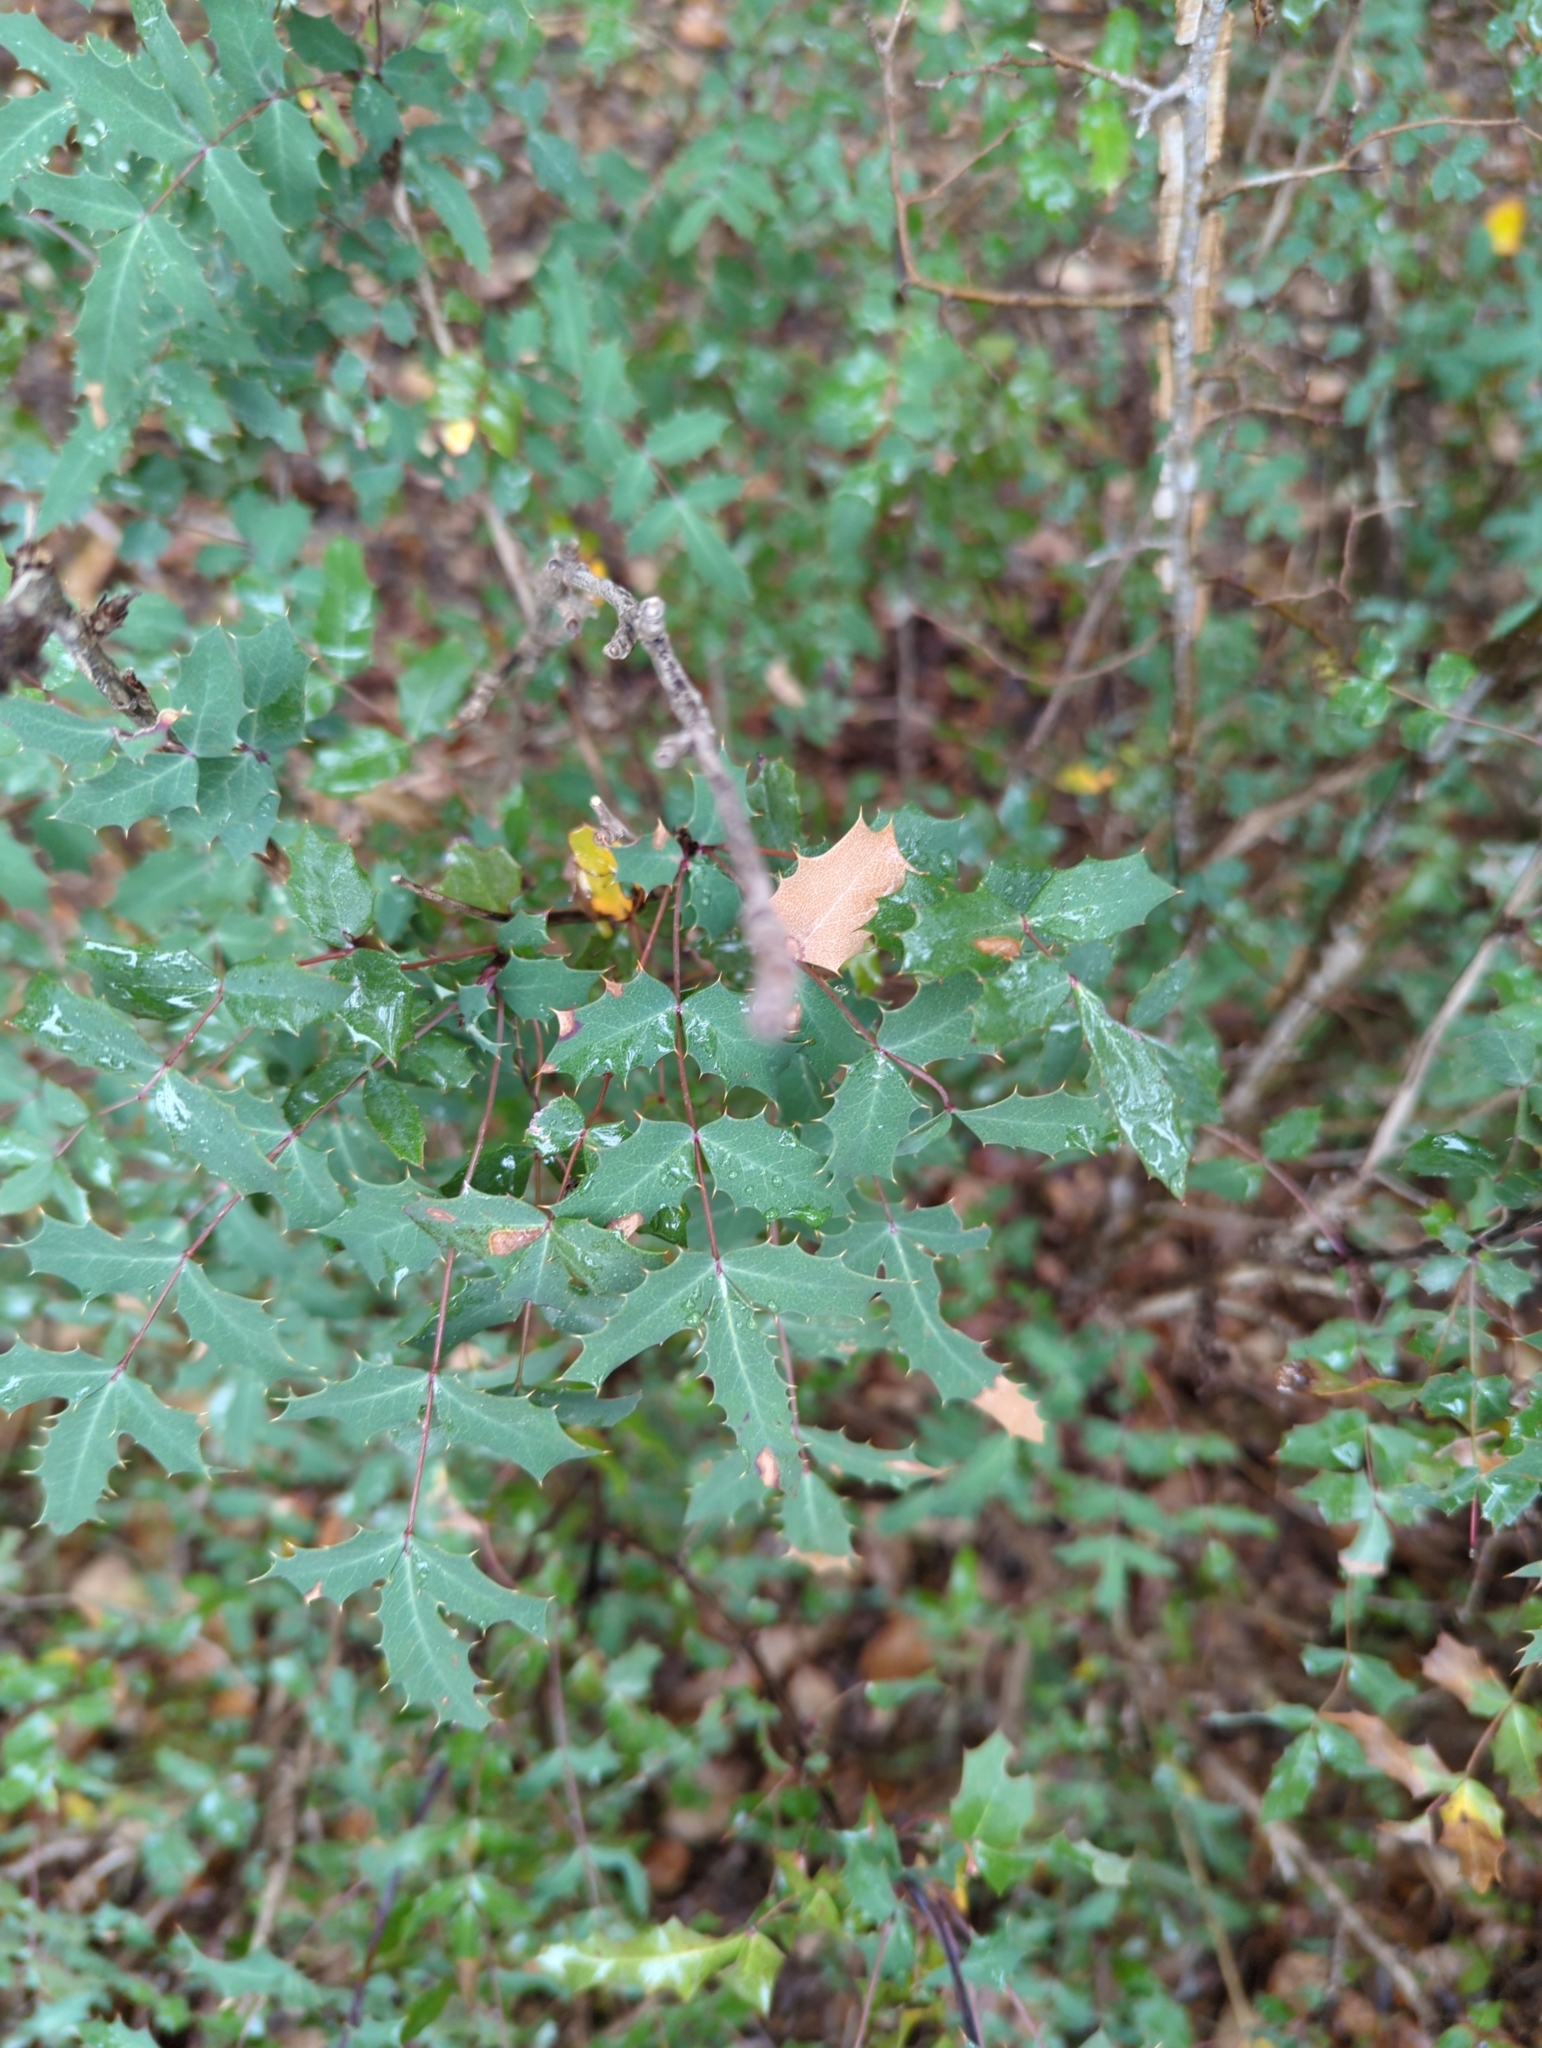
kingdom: Plantae
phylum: Tracheophyta
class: Magnoliopsida
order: Ranunculales
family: Berberidaceae
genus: Berberis
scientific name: Berberis swaseyi
